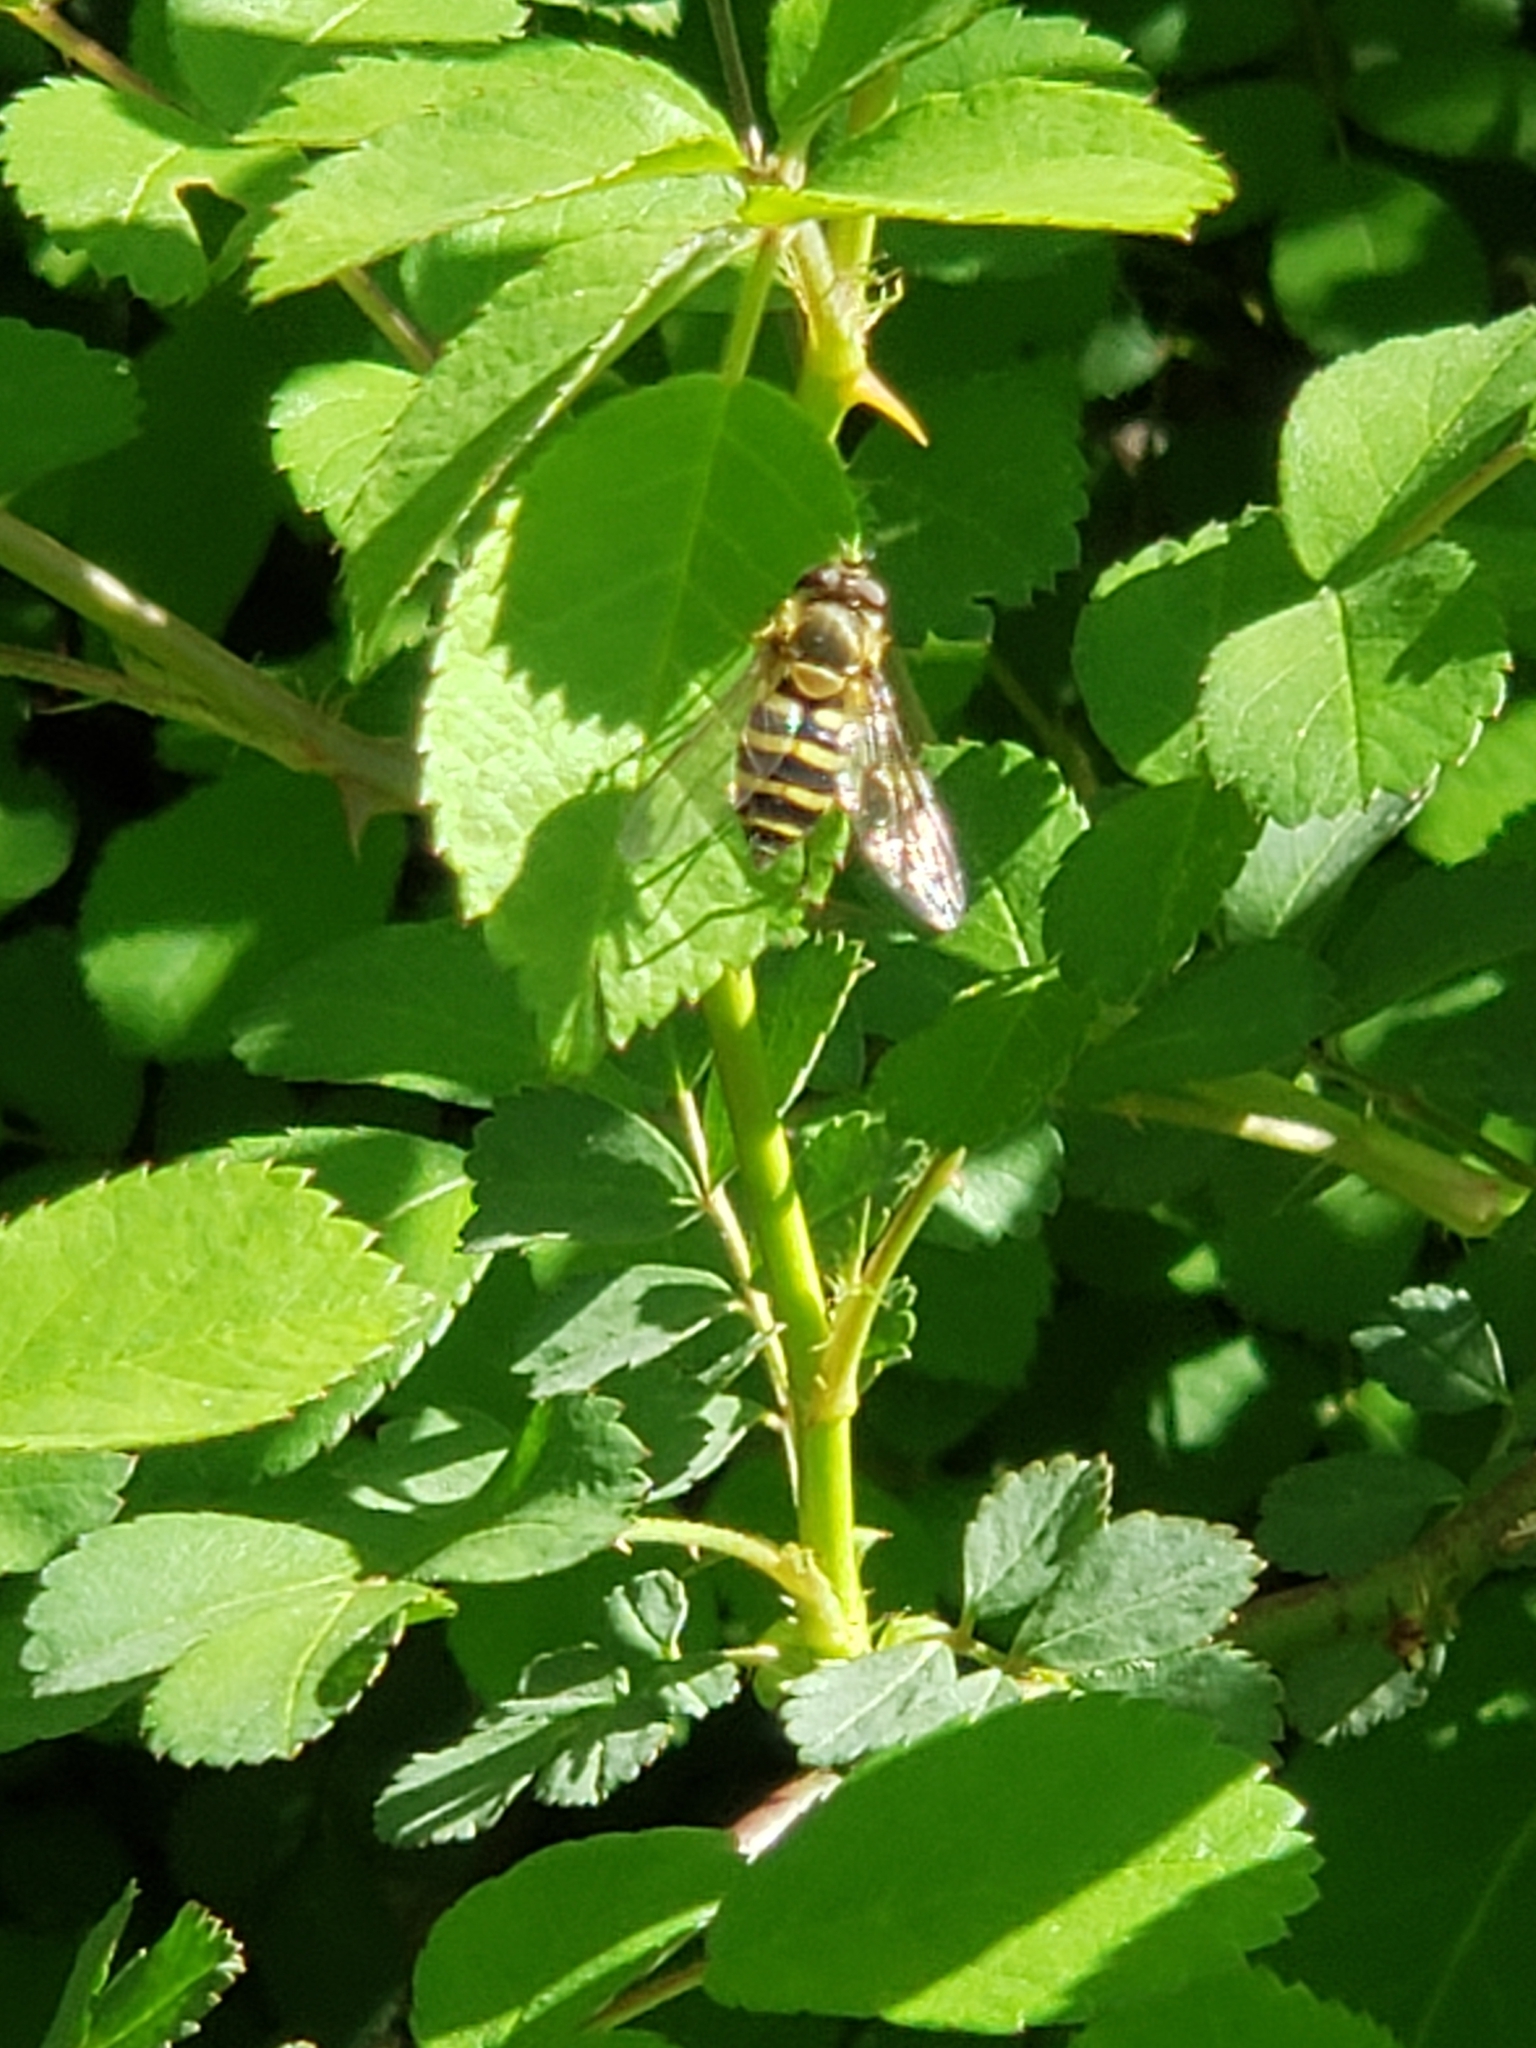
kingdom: Animalia
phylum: Arthropoda
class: Insecta
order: Diptera
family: Syrphidae
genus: Syrphus
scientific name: Syrphus
